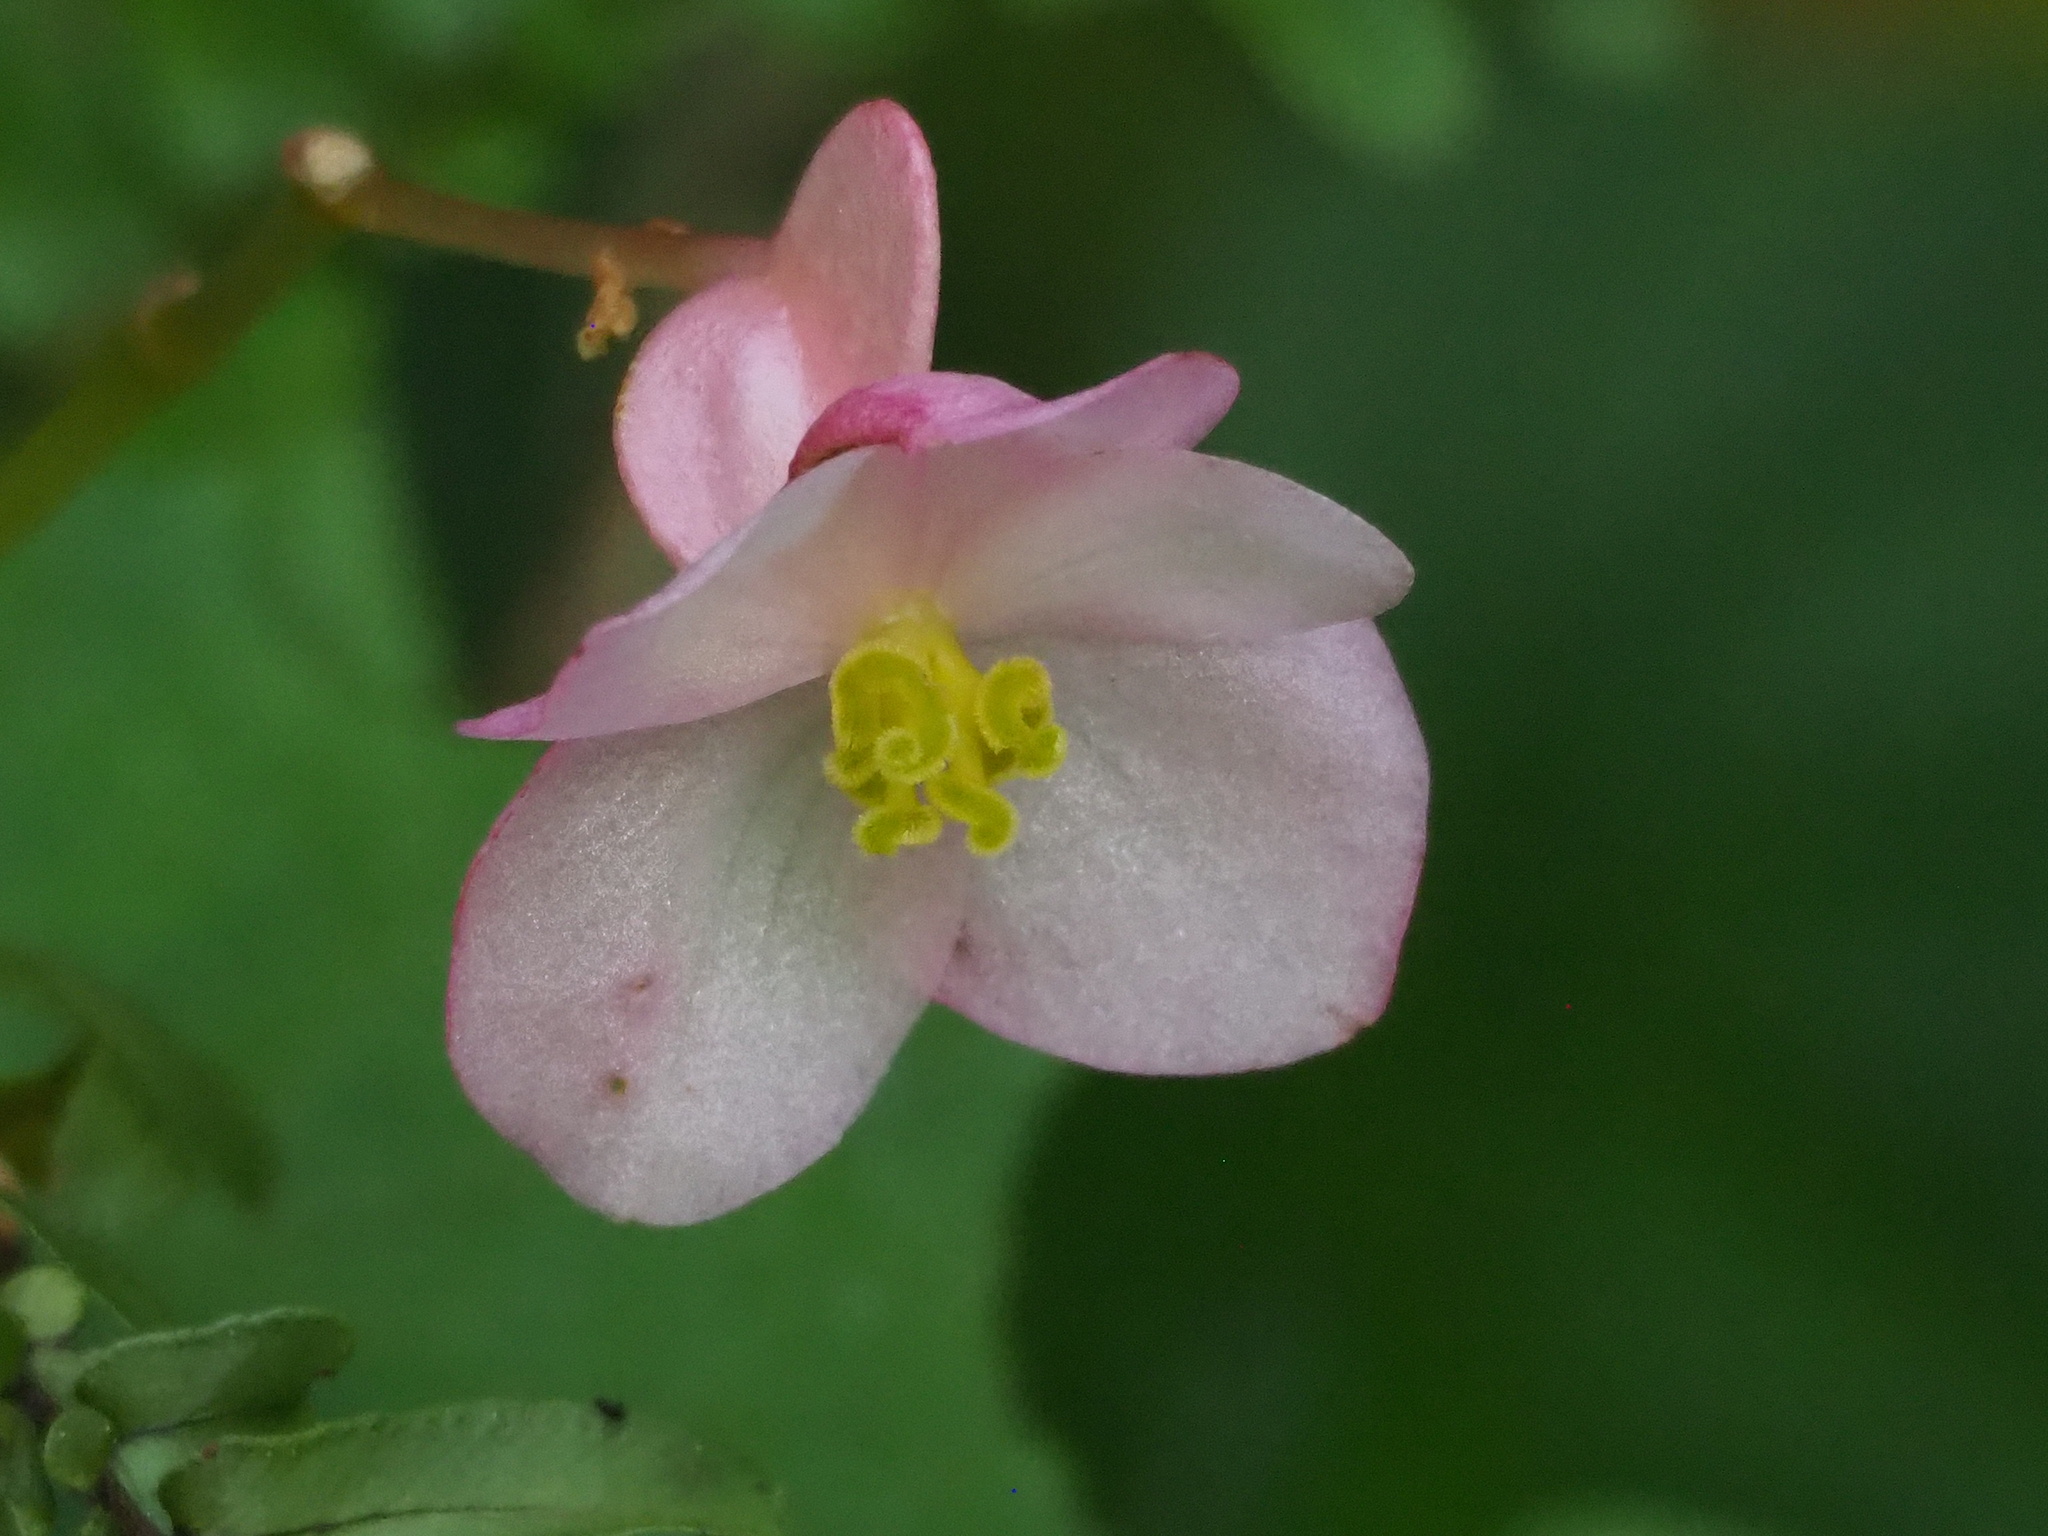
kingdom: Plantae
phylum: Tracheophyta
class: Magnoliopsida
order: Cucurbitales
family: Begoniaceae
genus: Begonia
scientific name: Begonia formosana
